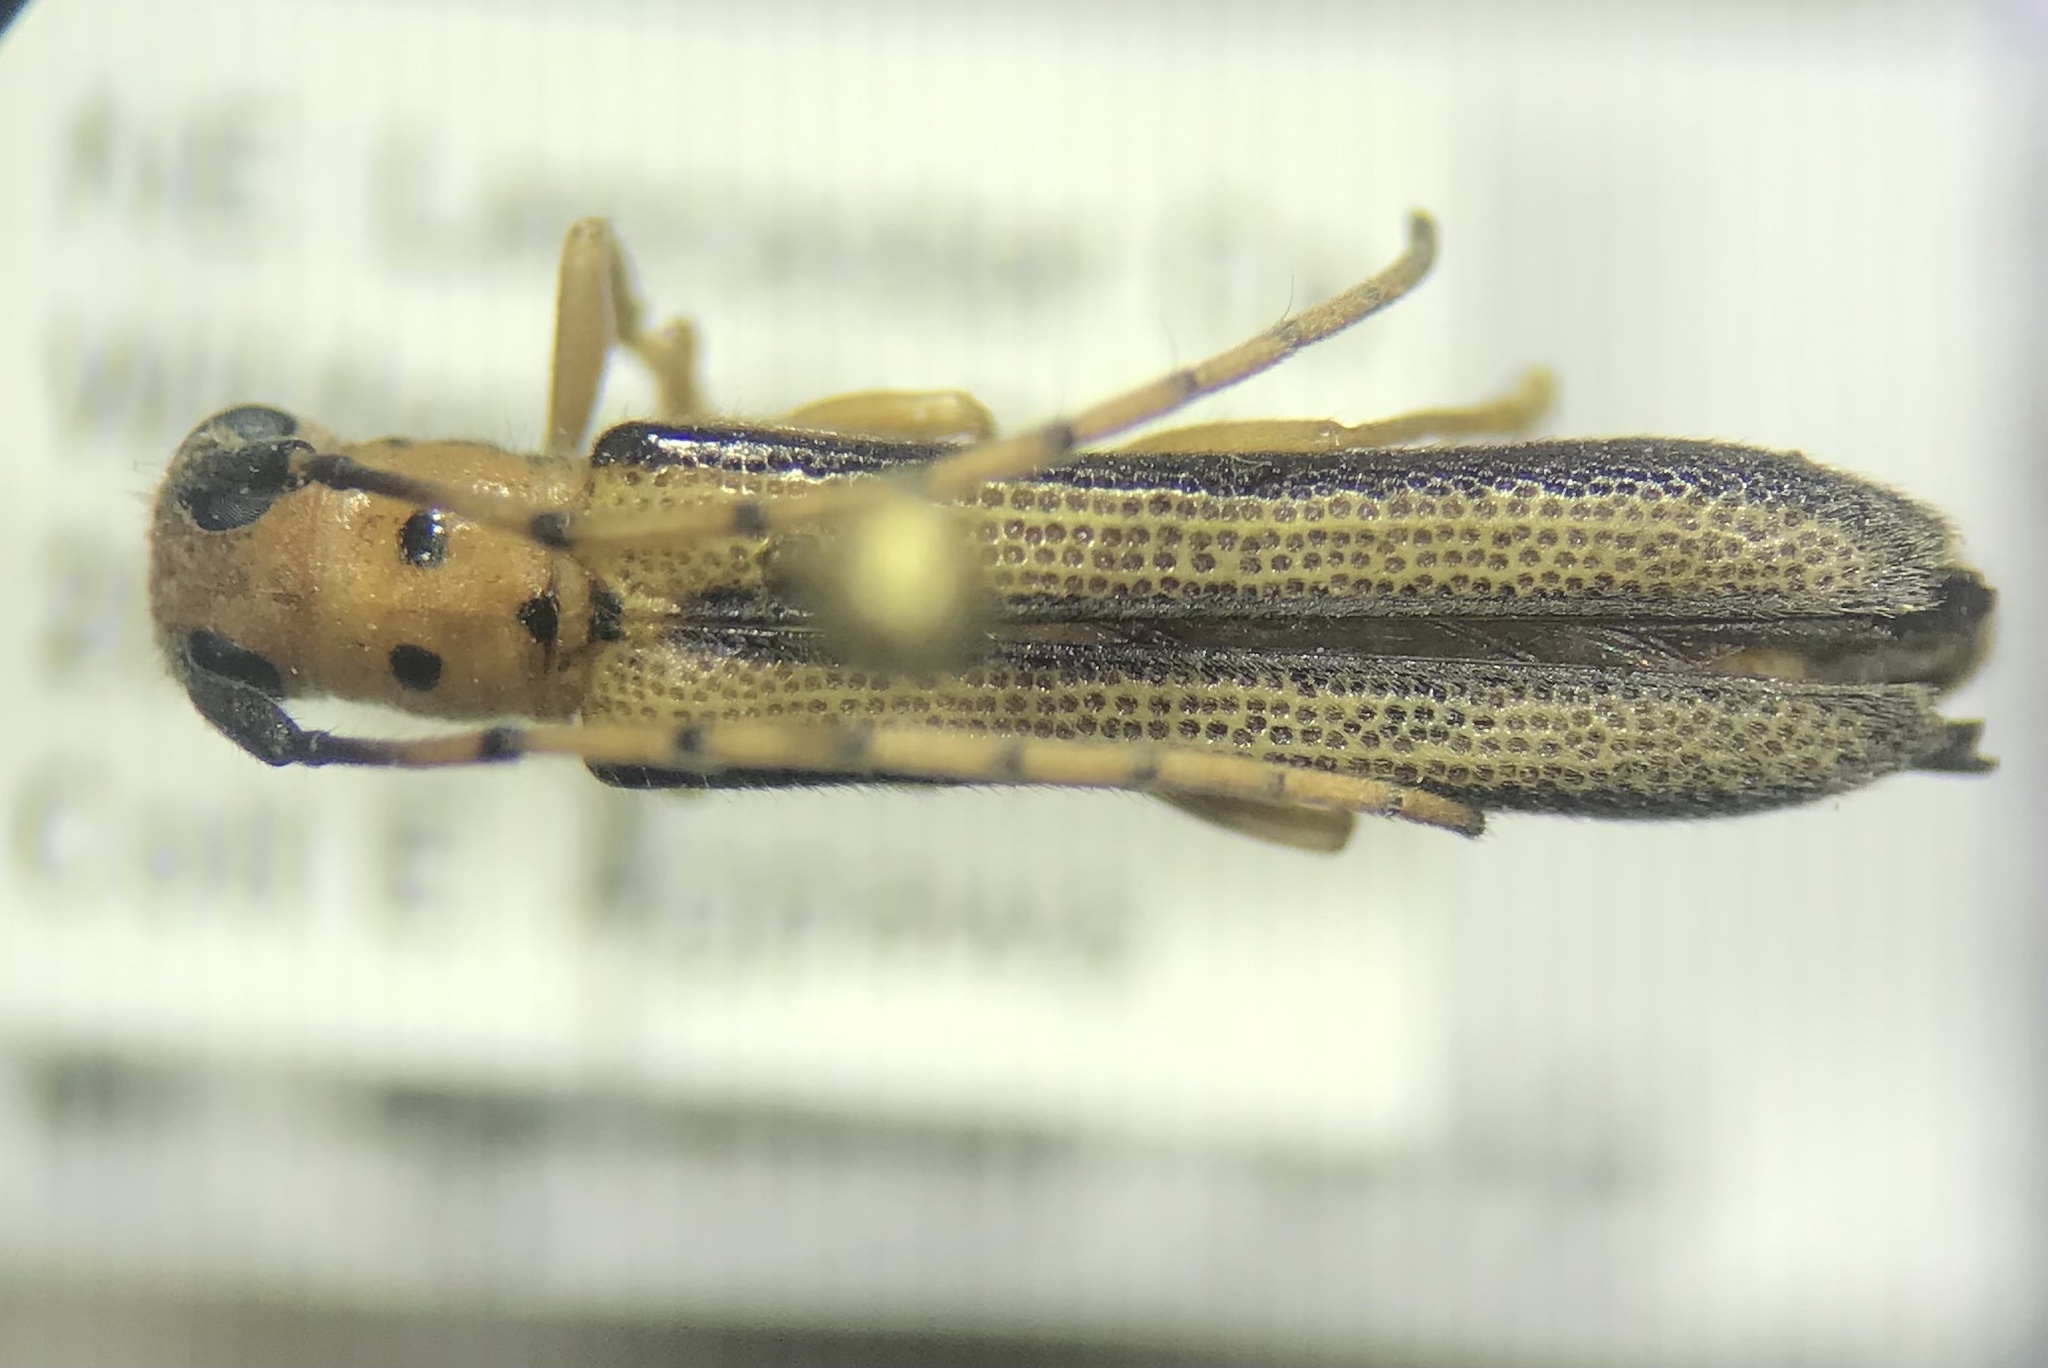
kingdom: Animalia
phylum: Arthropoda
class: Insecta
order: Coleoptera
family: Cerambycidae
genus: Oberea
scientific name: Oberea tripunctata
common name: Dogwood twig borer
